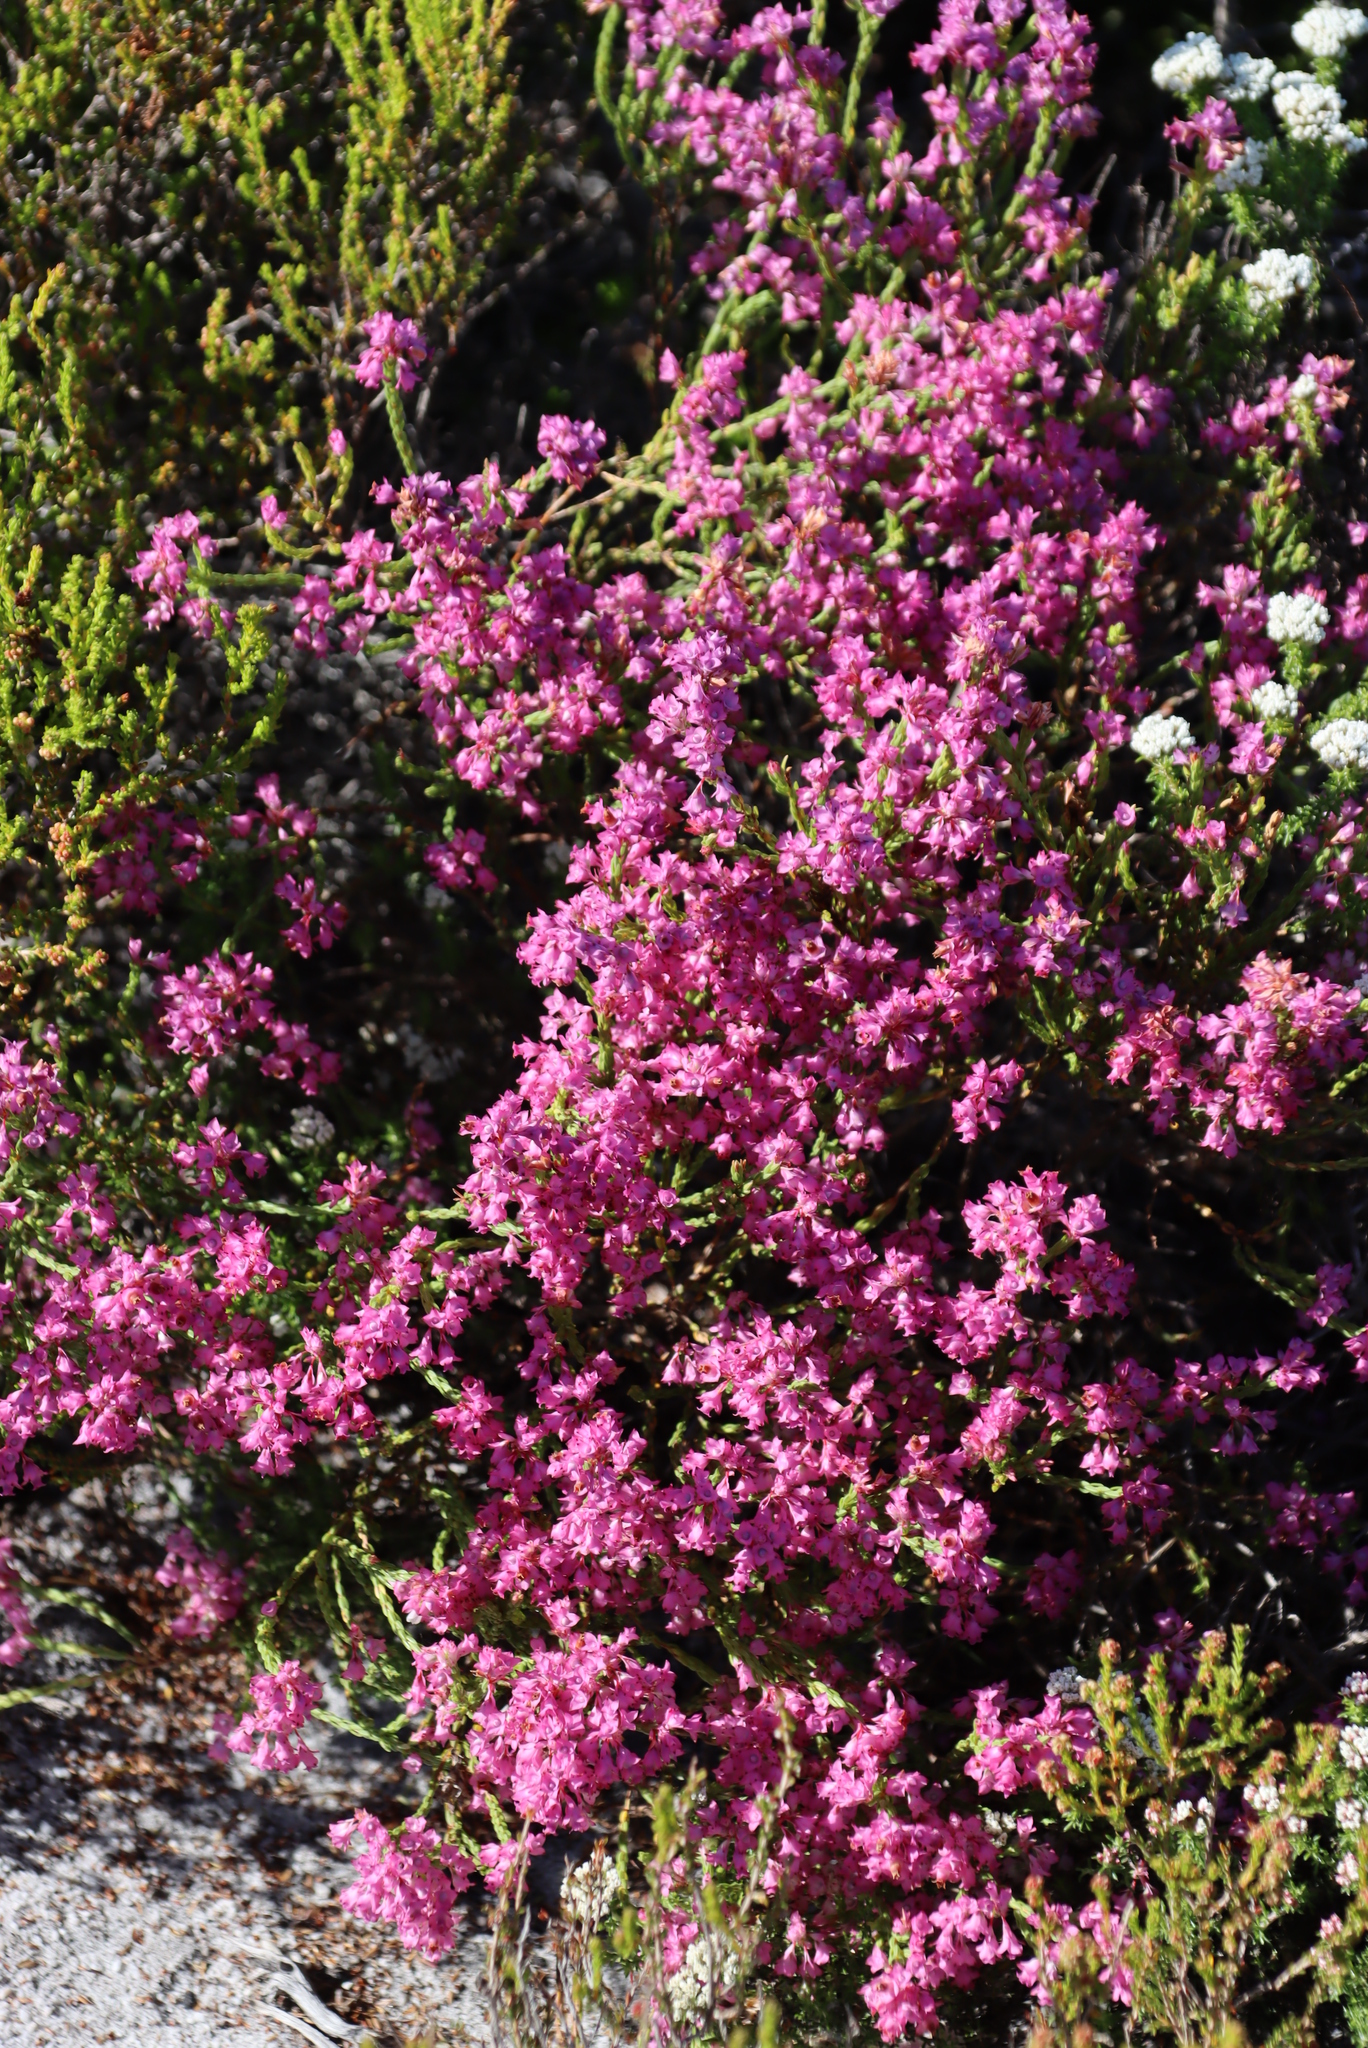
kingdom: Plantae
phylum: Tracheophyta
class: Magnoliopsida
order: Ericales
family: Ericaceae
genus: Erica
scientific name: Erica corifolia
